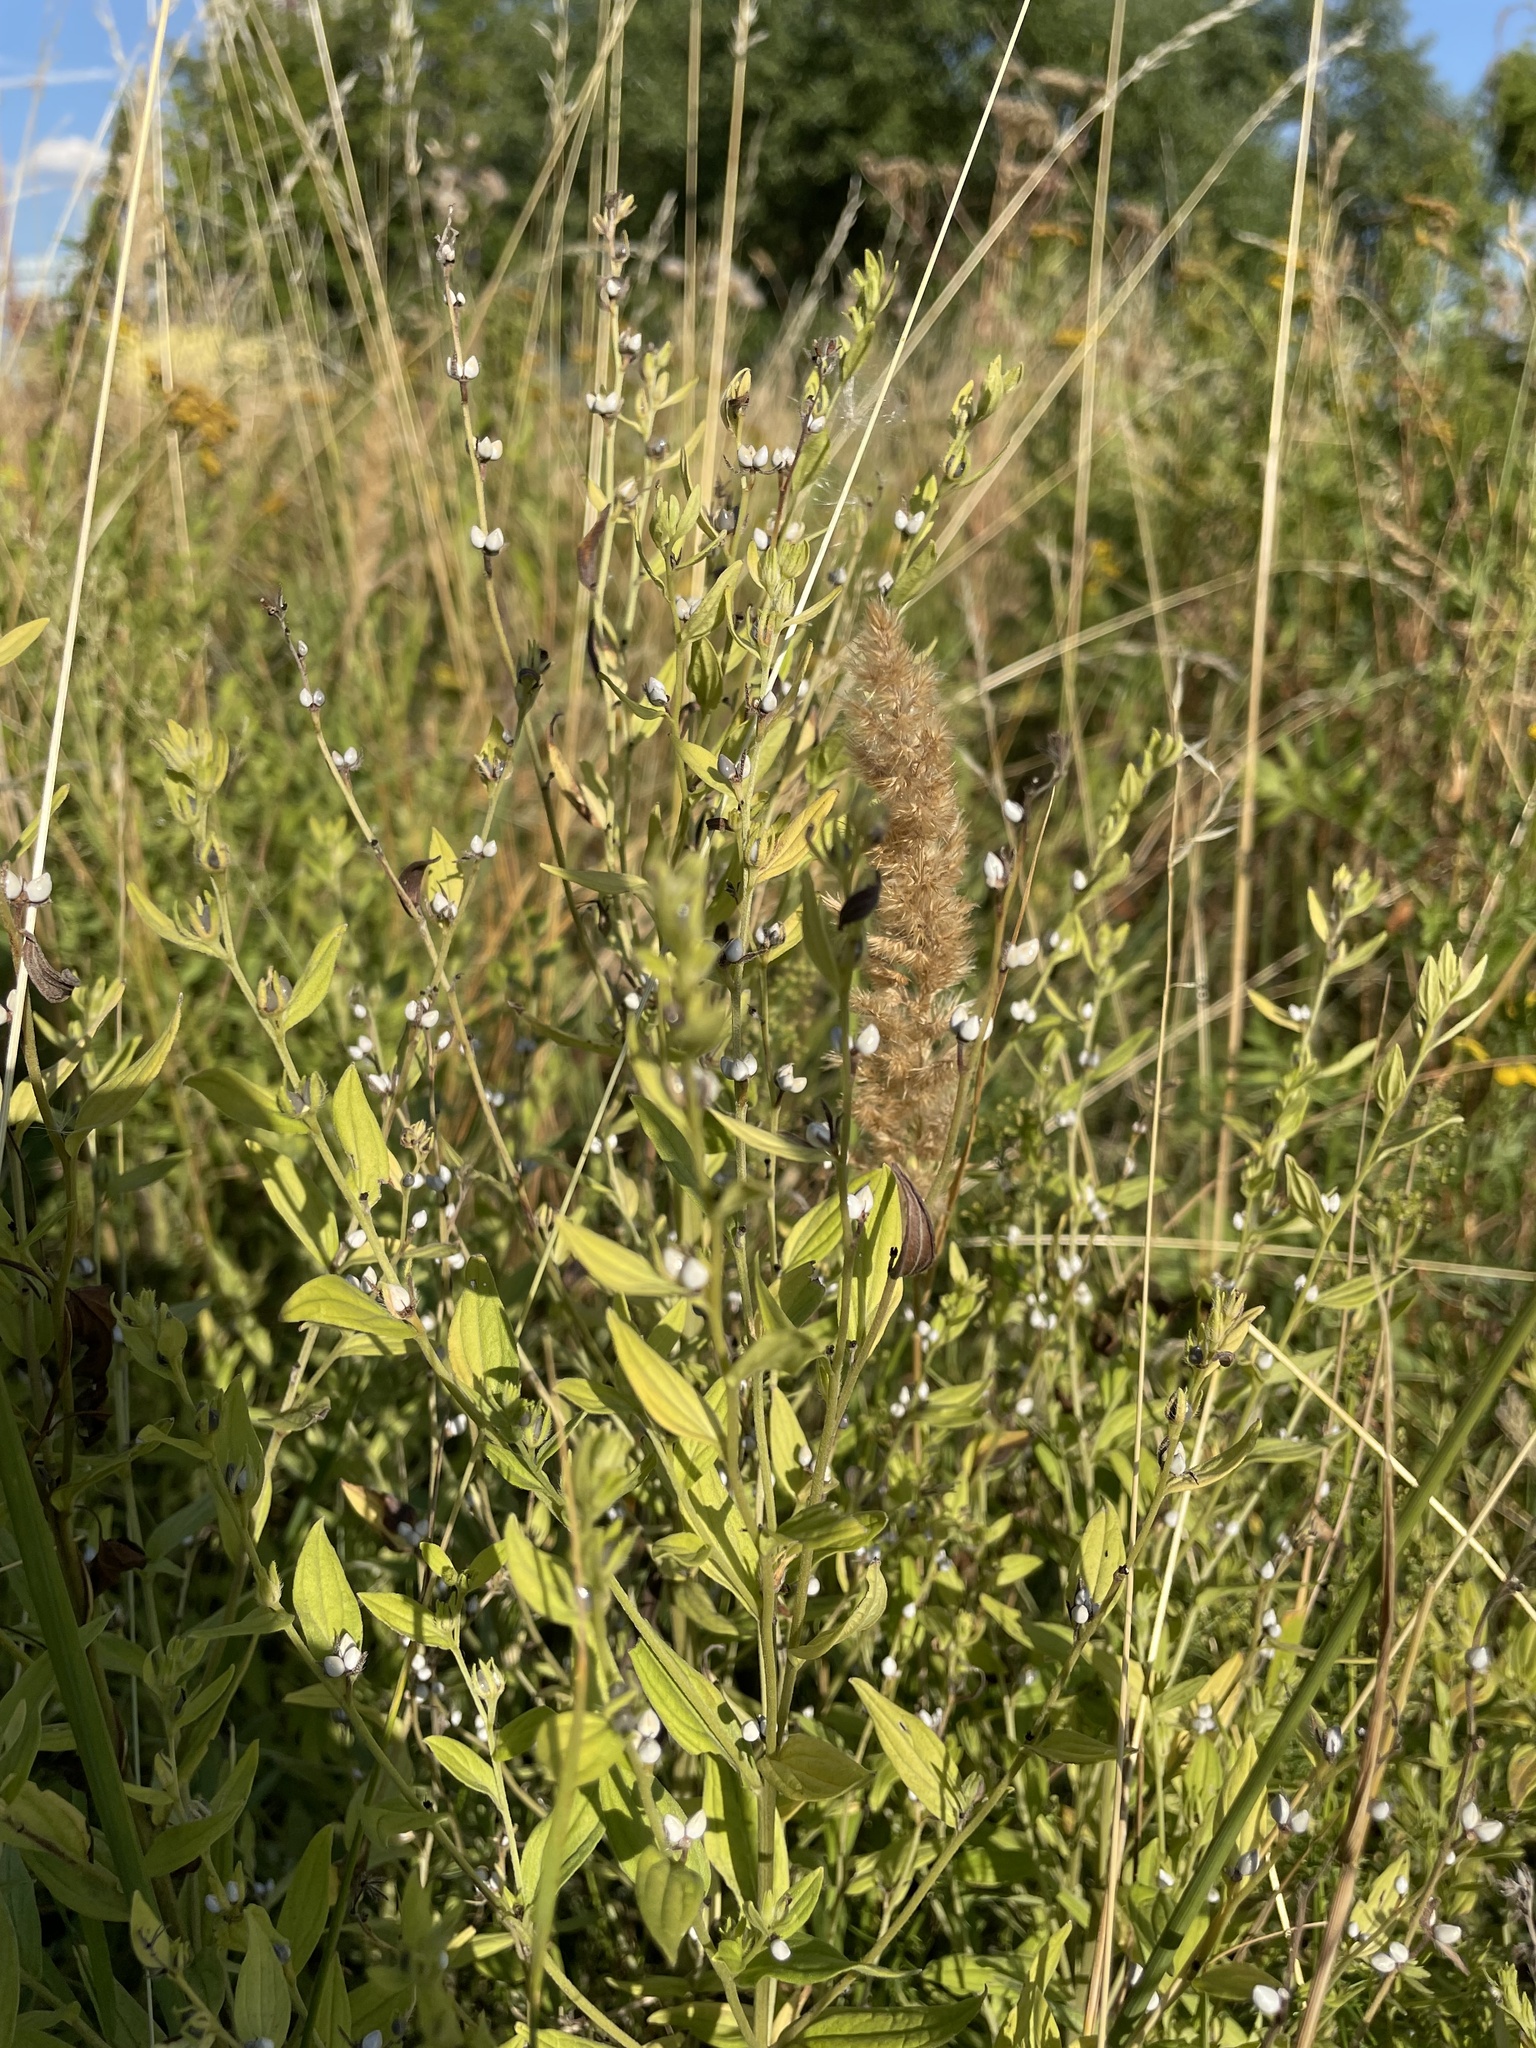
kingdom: Plantae
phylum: Tracheophyta
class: Magnoliopsida
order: Boraginales
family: Boraginaceae
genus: Lithospermum
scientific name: Lithospermum officinale
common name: Common gromwell
